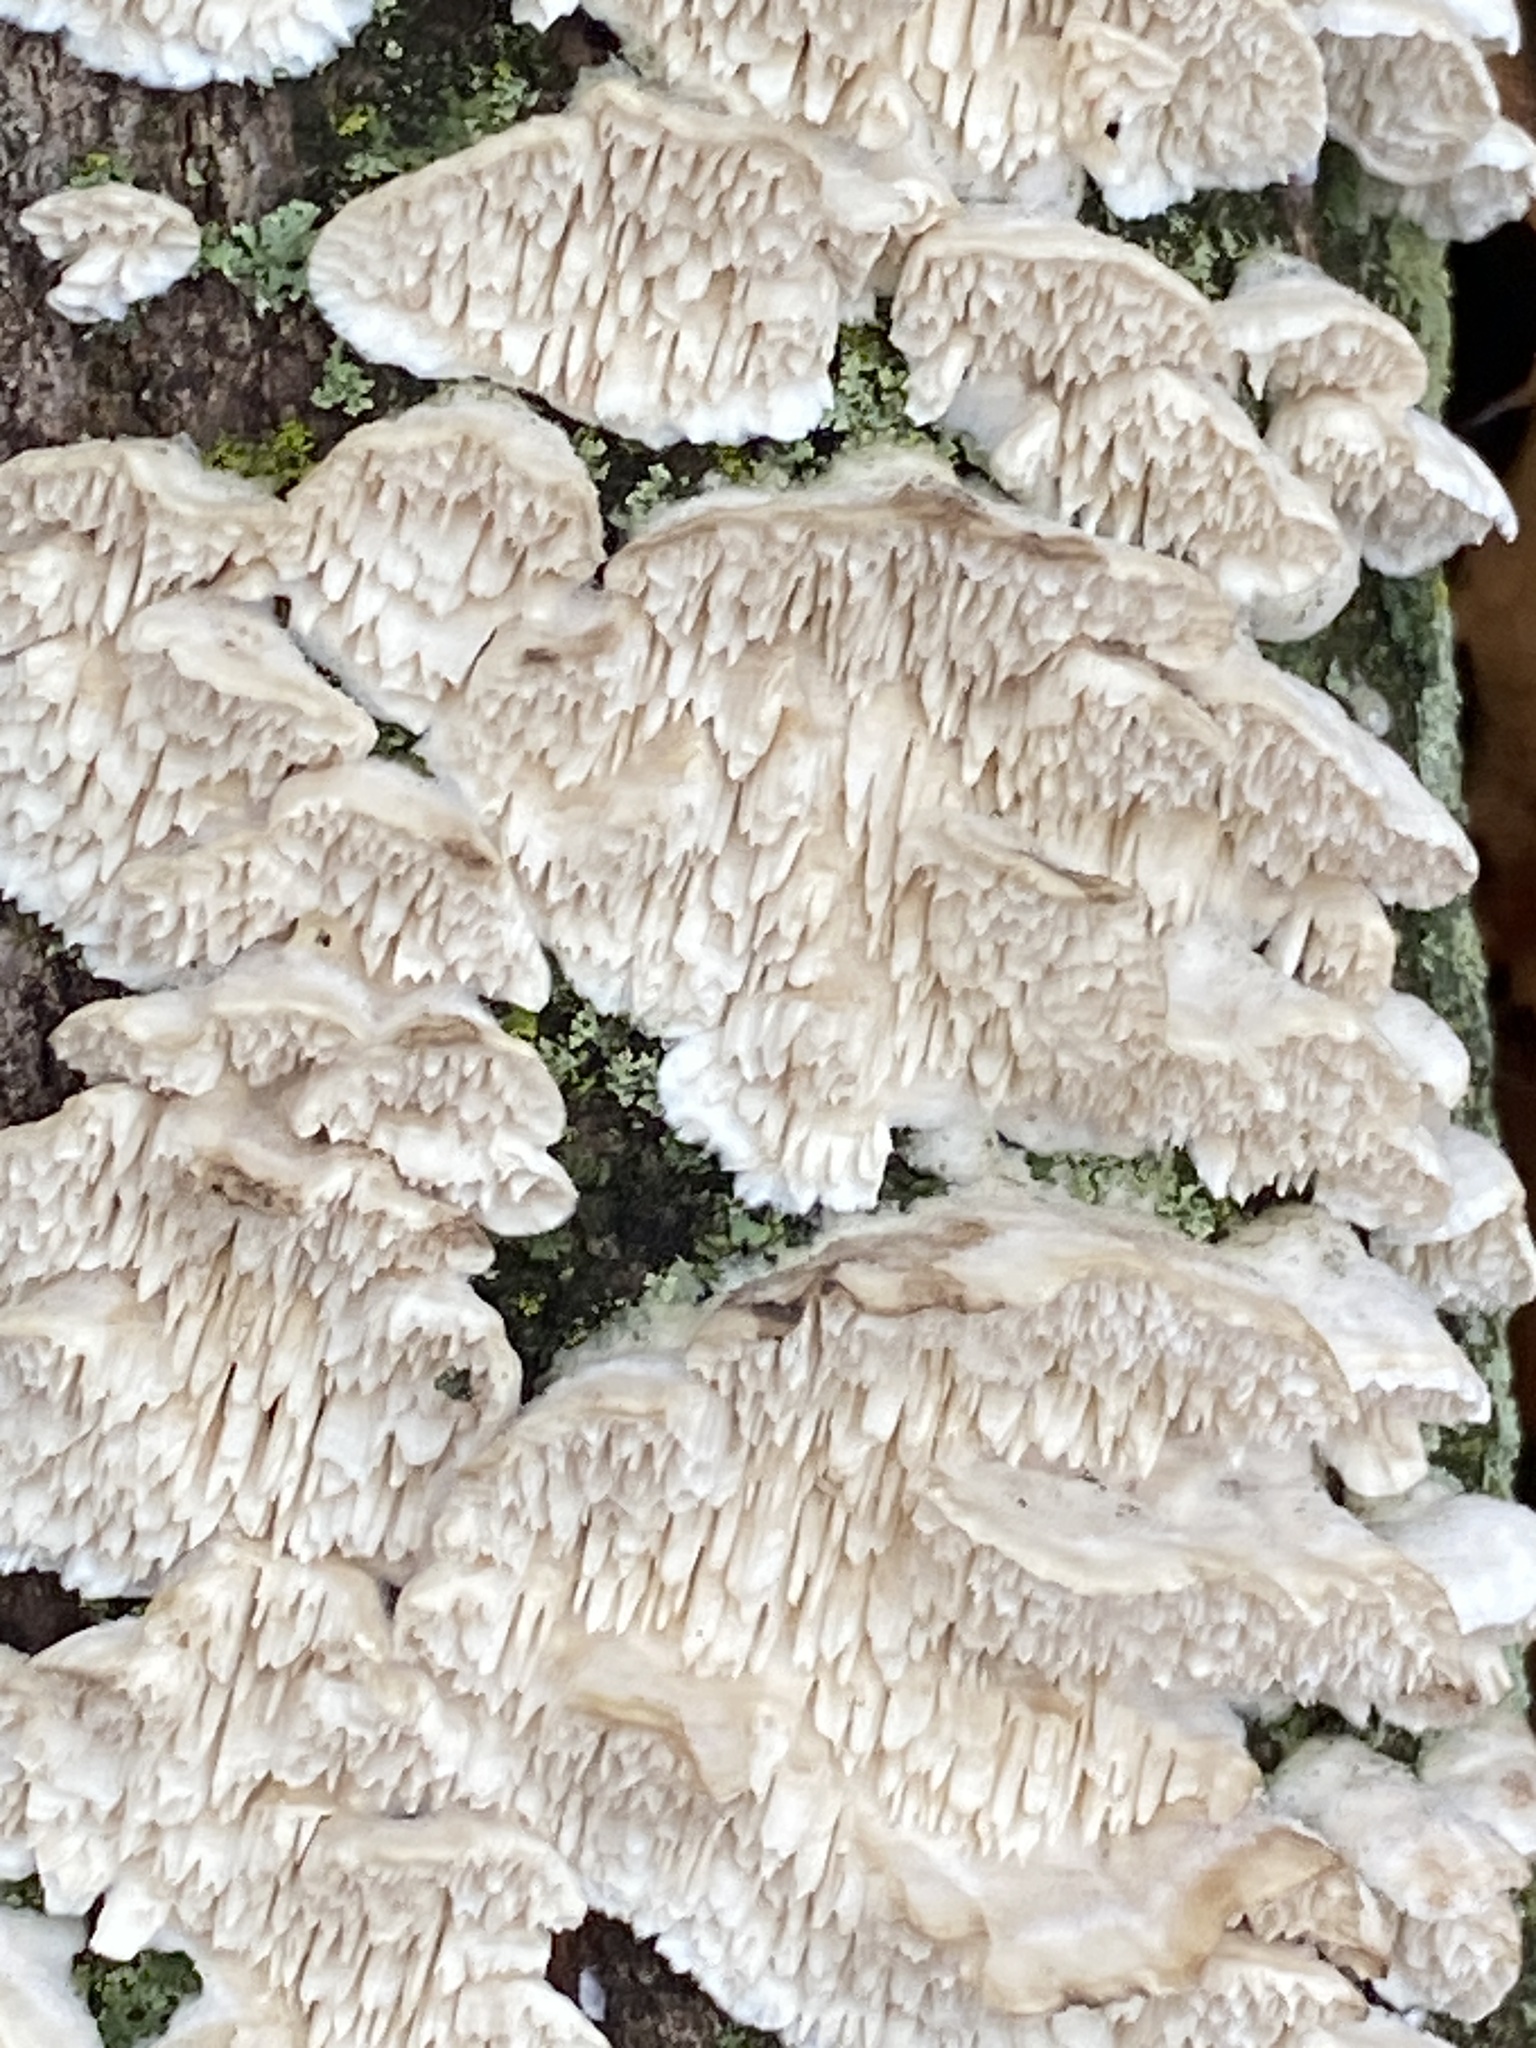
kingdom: Fungi
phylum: Basidiomycota
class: Agaricomycetes
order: Polyporales
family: Irpicaceae
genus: Irpex
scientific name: Irpex lacteus
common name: Milk-white toothed polypore
